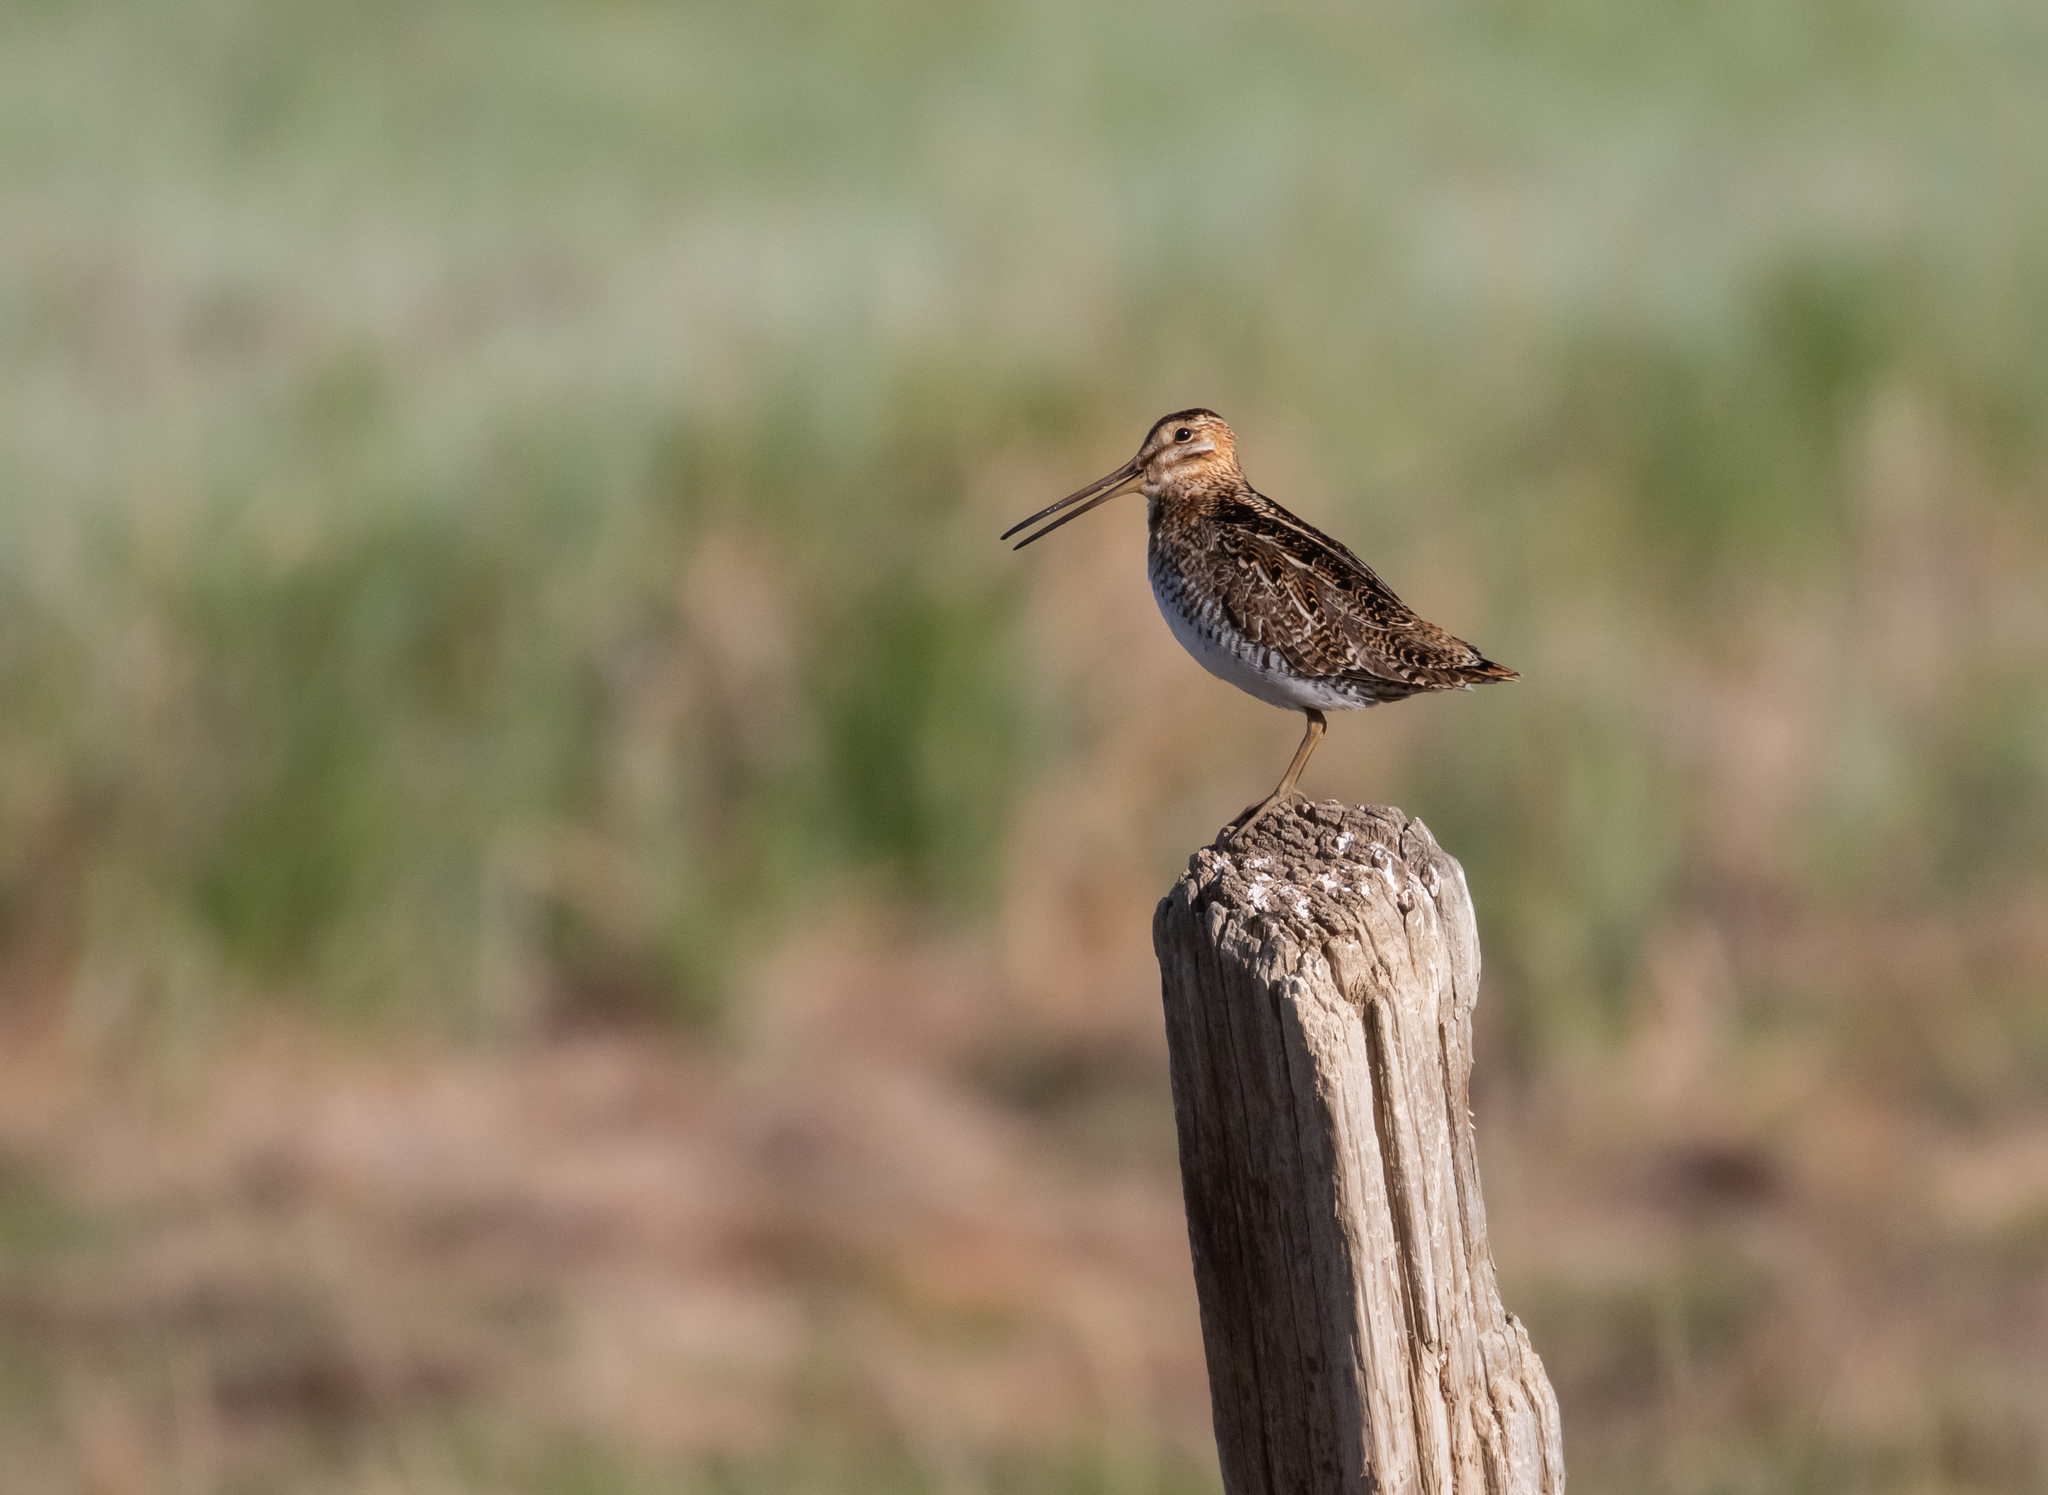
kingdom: Animalia
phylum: Chordata
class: Aves
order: Charadriiformes
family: Scolopacidae
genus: Gallinago
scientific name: Gallinago delicata
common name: Wilson's snipe
